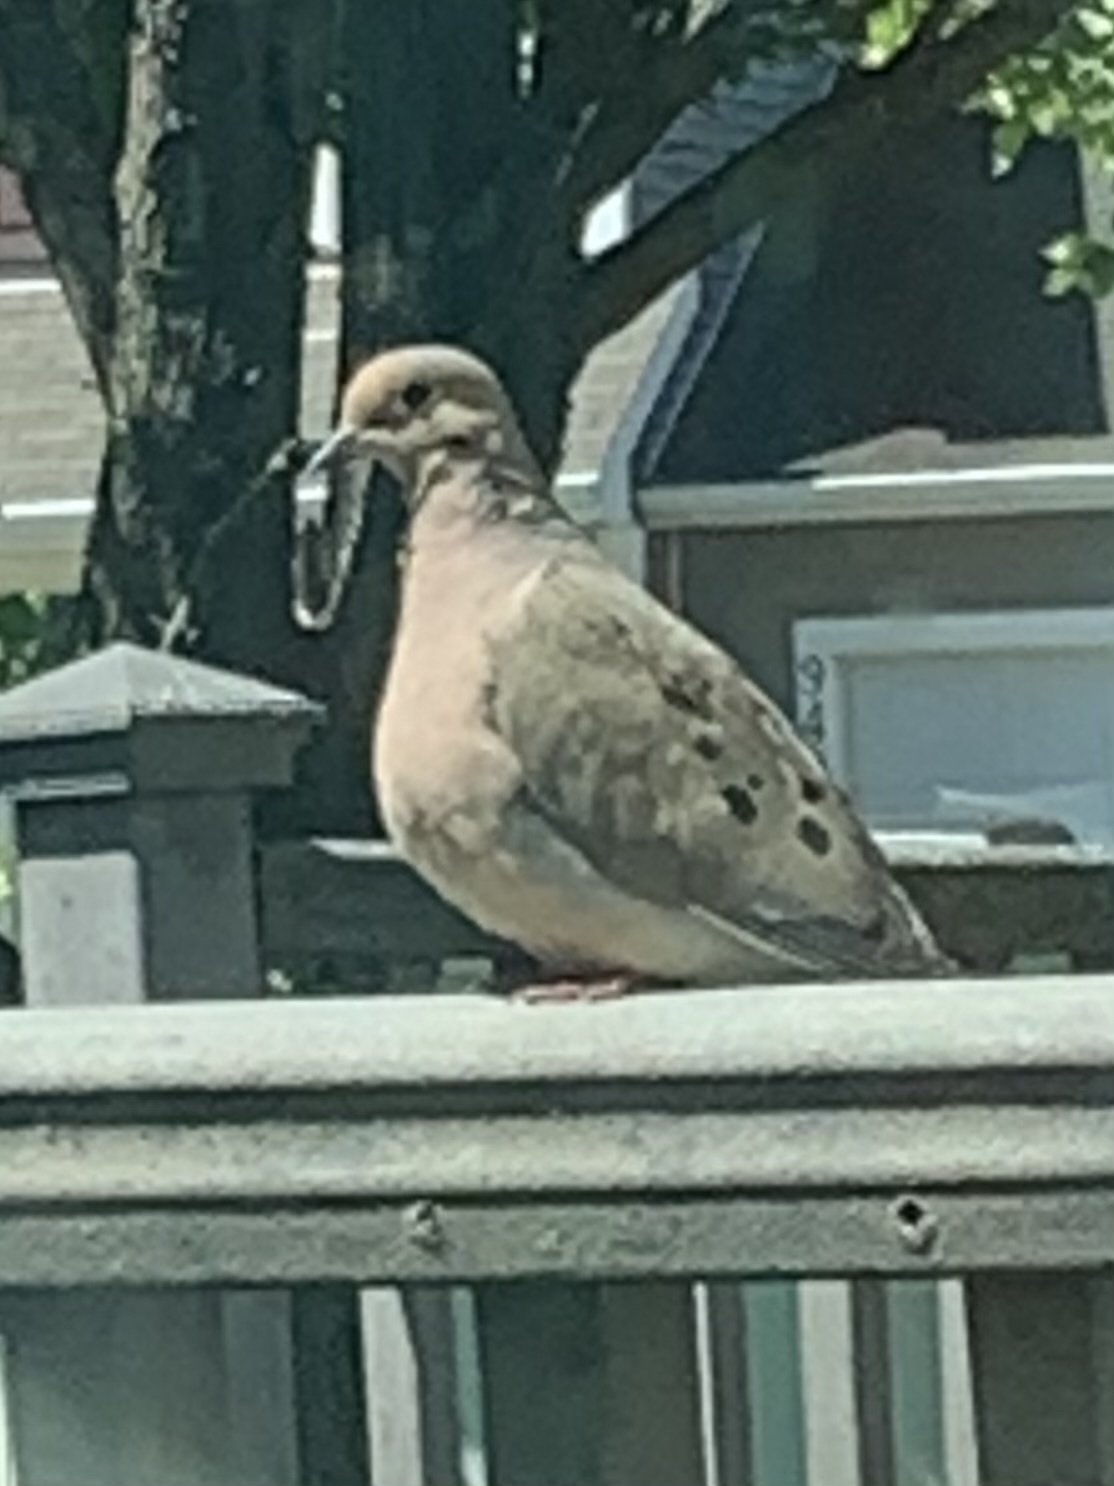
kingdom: Animalia
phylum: Chordata
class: Aves
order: Columbiformes
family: Columbidae
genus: Zenaida
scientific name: Zenaida macroura
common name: Mourning dove
